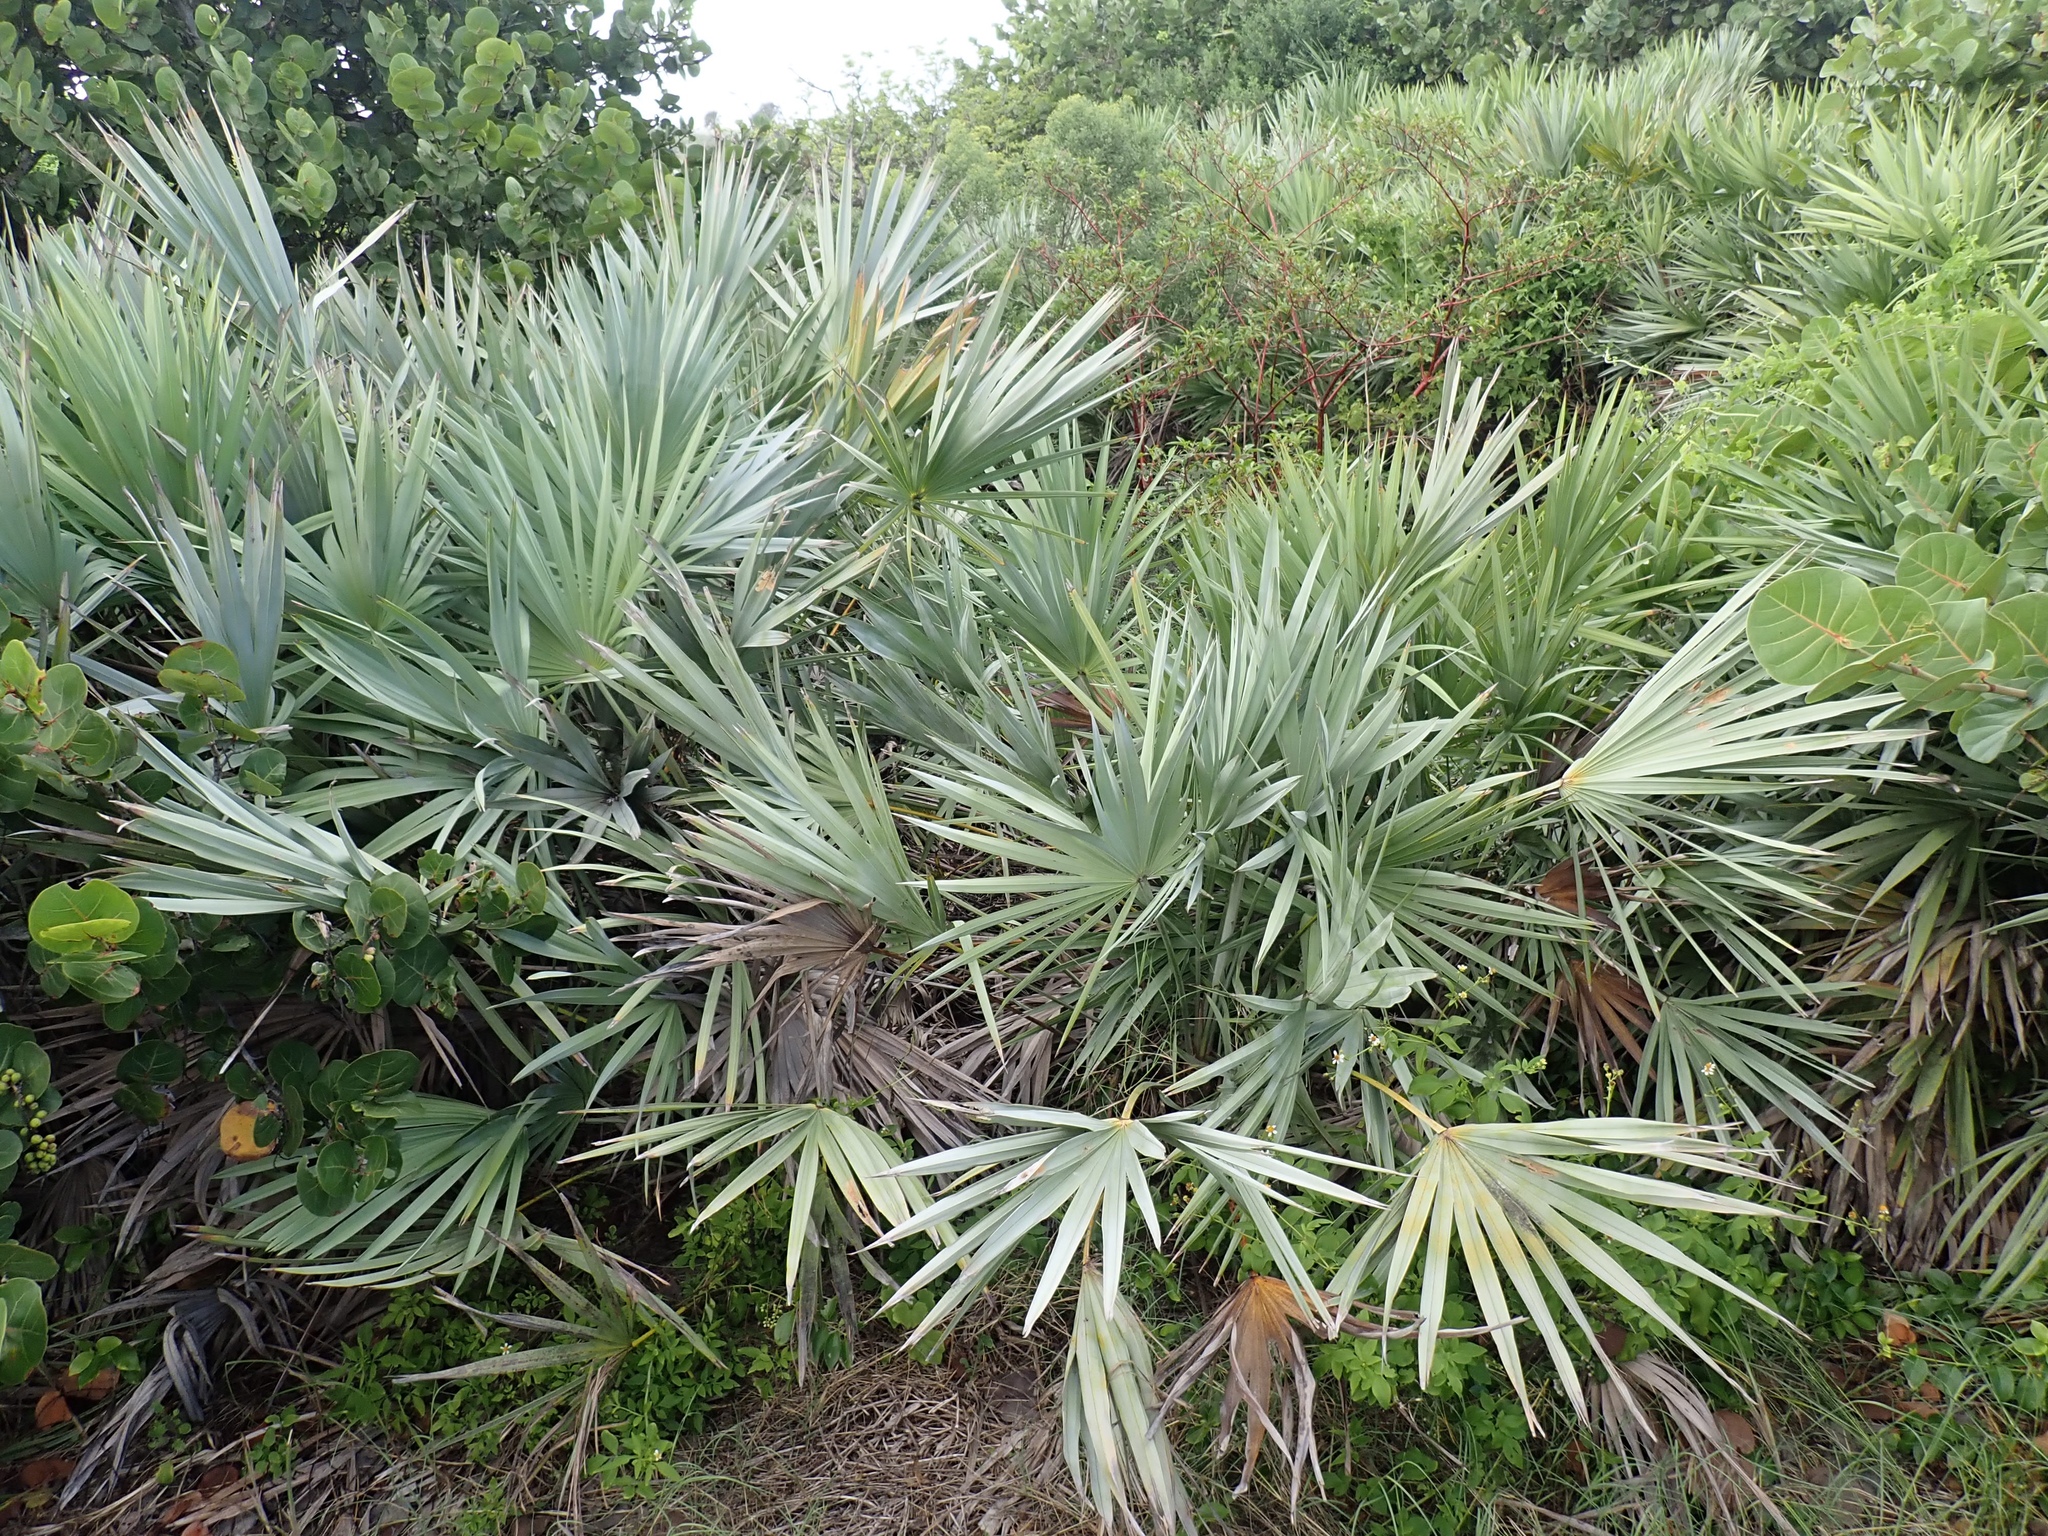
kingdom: Plantae
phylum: Tracheophyta
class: Liliopsida
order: Arecales
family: Arecaceae
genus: Serenoa
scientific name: Serenoa repens
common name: Saw-palmetto
